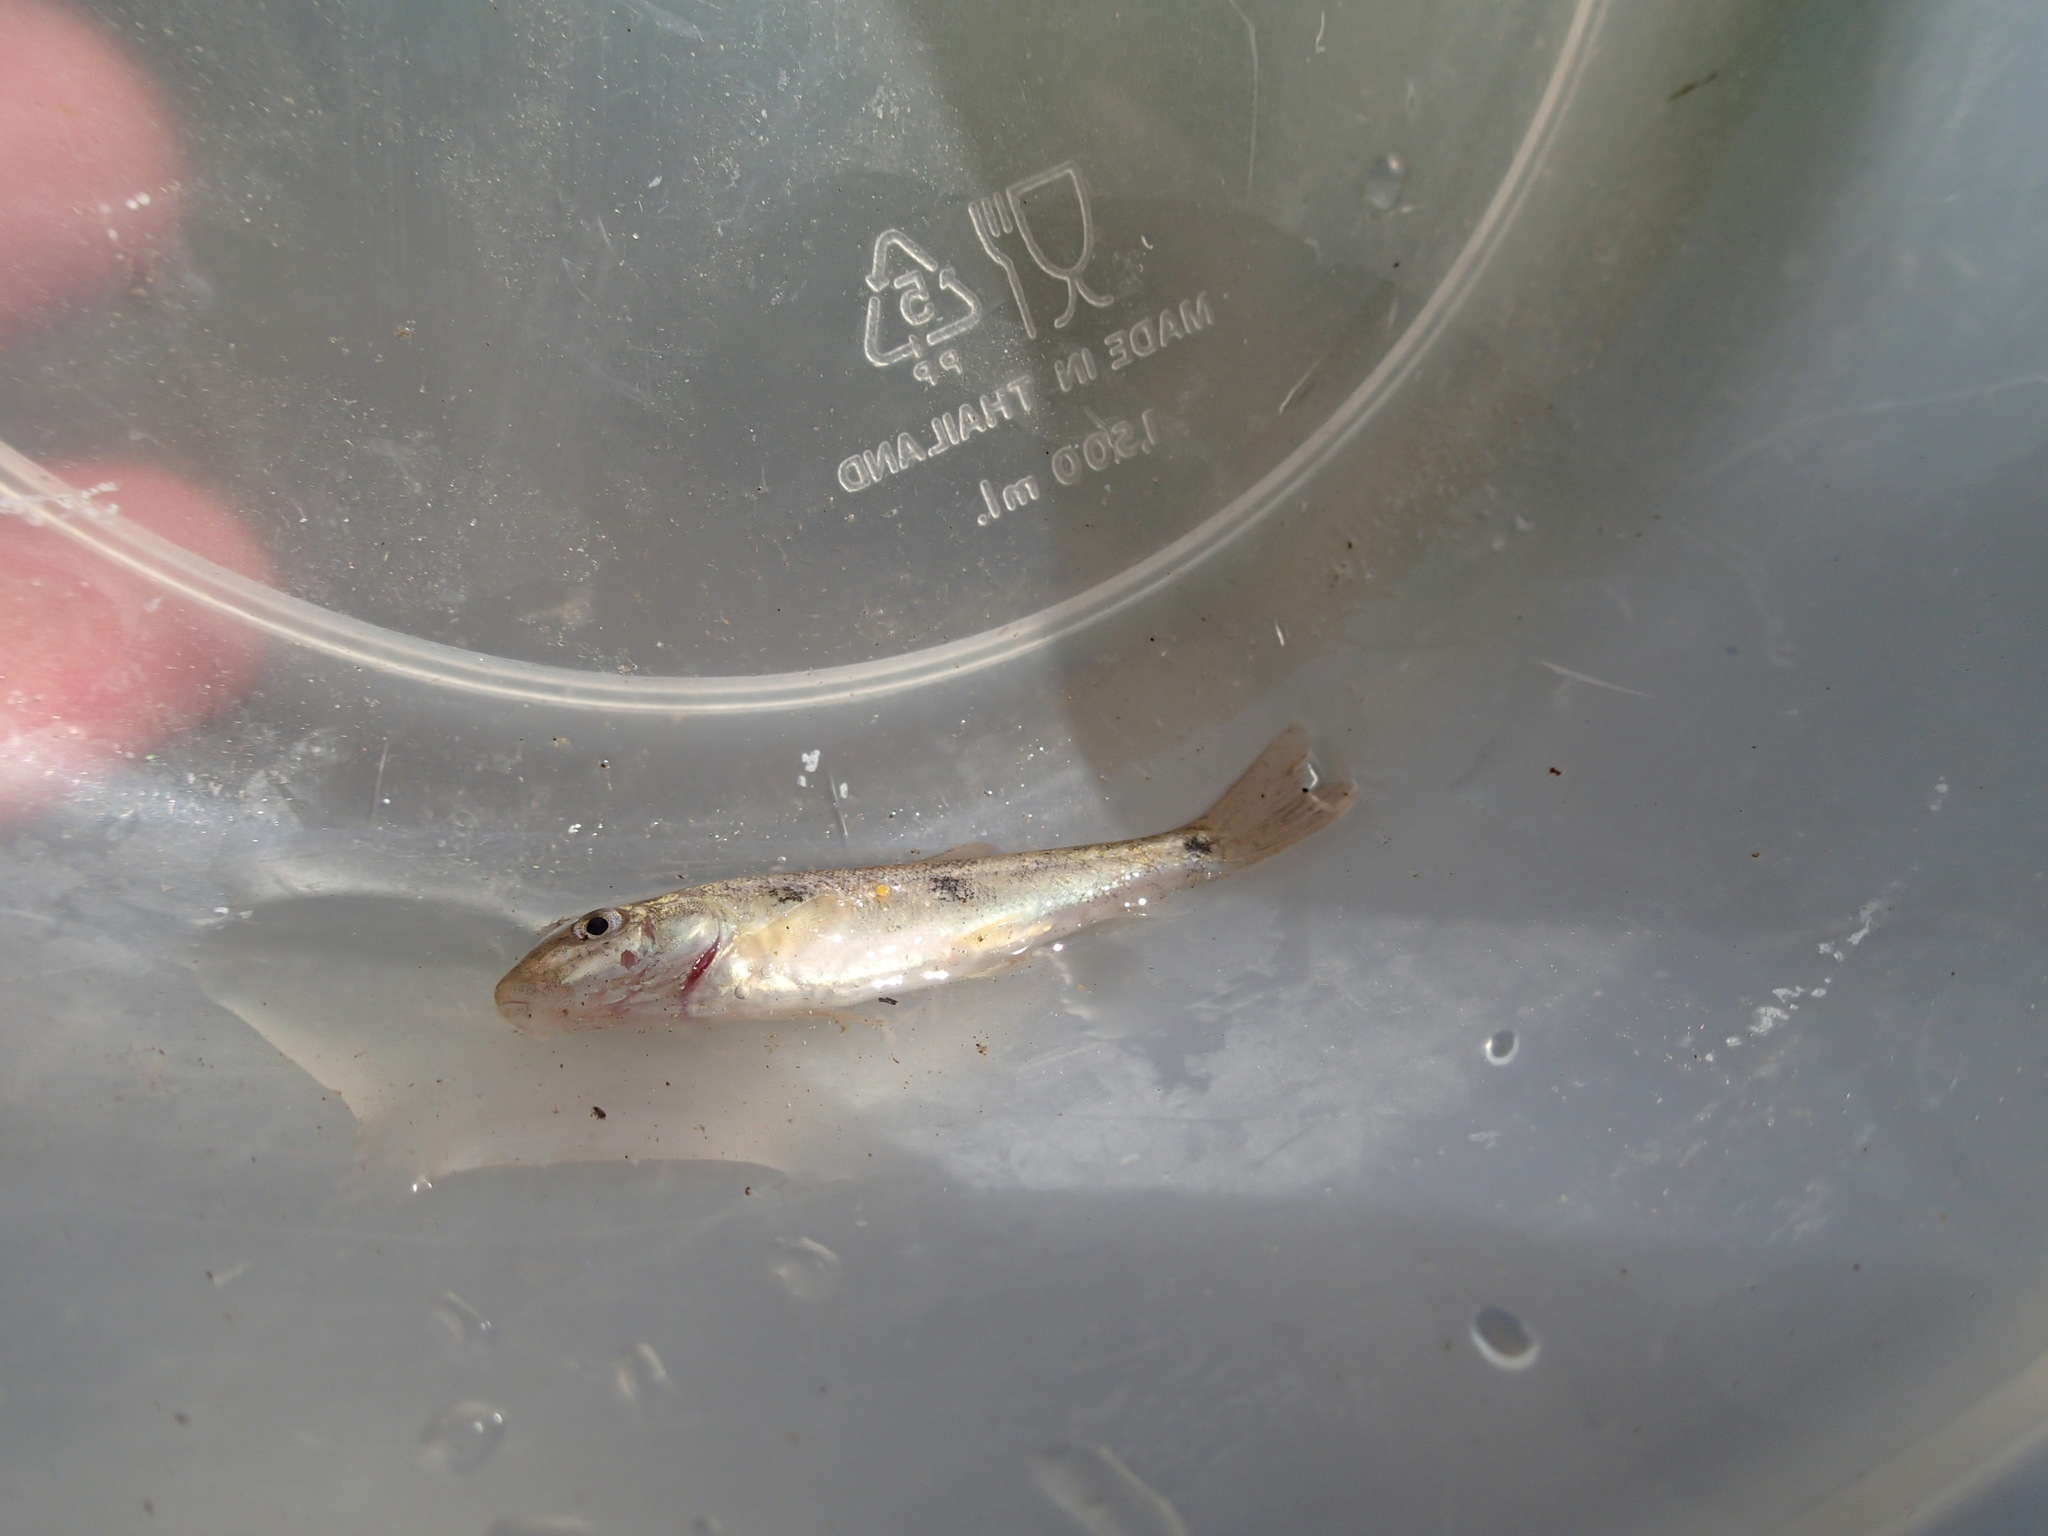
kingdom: Animalia
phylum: Chordata
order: Cypriniformes
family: Catostomidae
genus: Catostomus
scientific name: Catostomus commersonii
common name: White sucker
